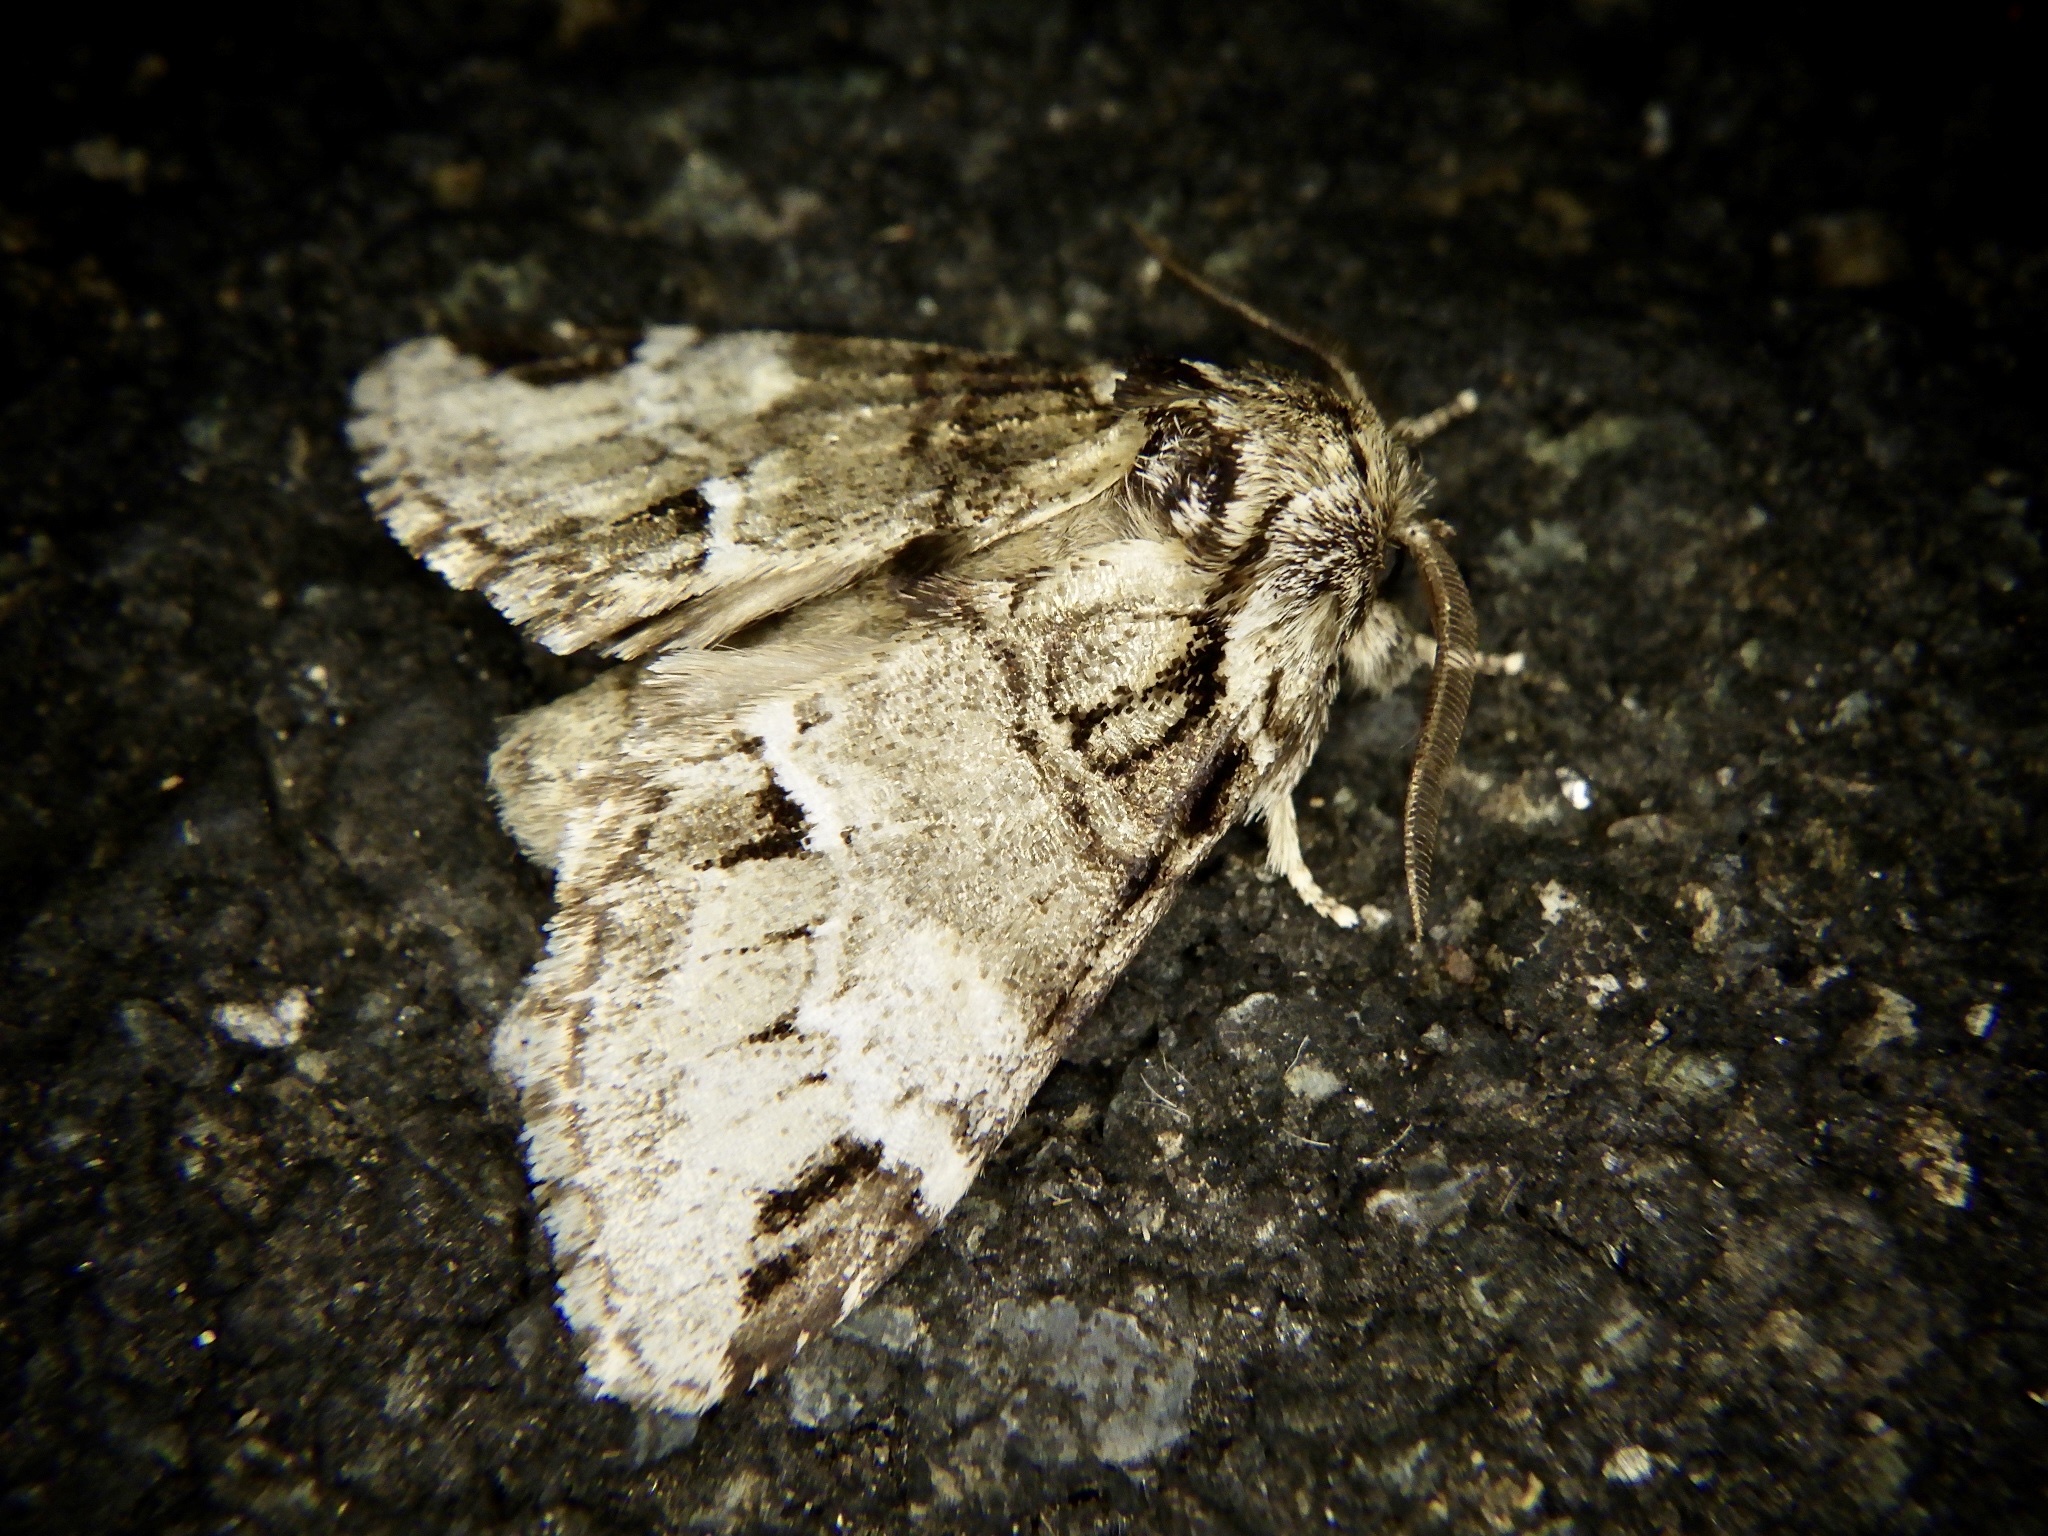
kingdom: Animalia
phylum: Arthropoda
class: Insecta
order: Lepidoptera
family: Notodontidae
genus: Drymonia
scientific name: Drymonia japonica
